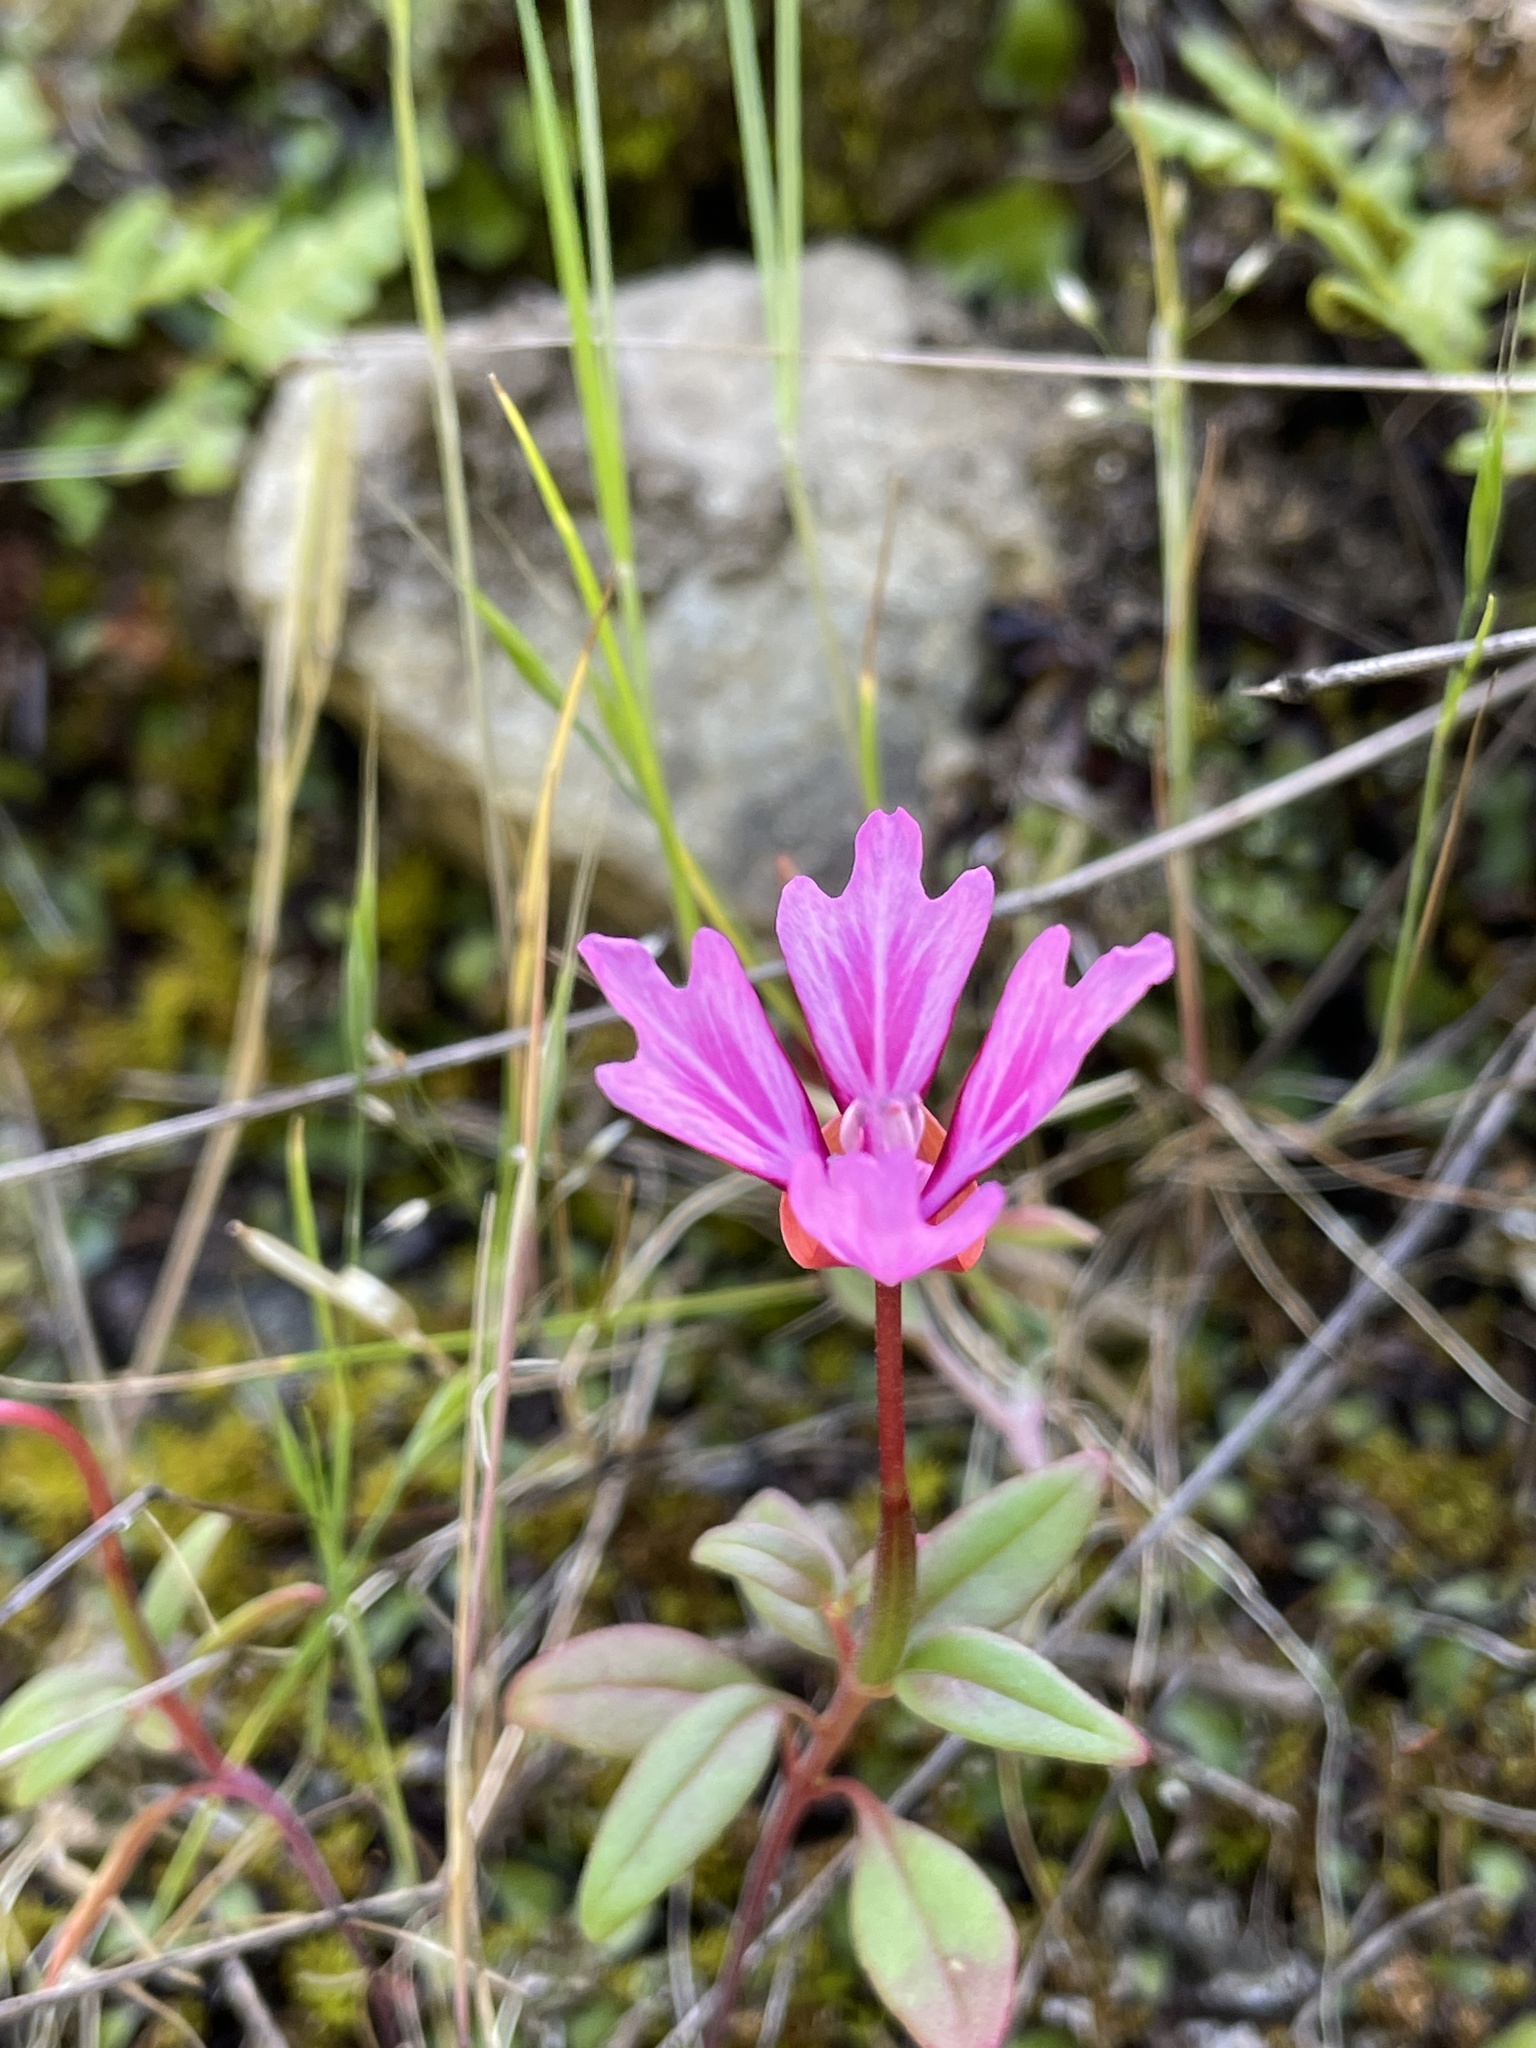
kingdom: Plantae
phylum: Tracheophyta
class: Magnoliopsida
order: Myrtales
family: Onagraceae
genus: Clarkia
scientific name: Clarkia concinna
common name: Red-ribbons
